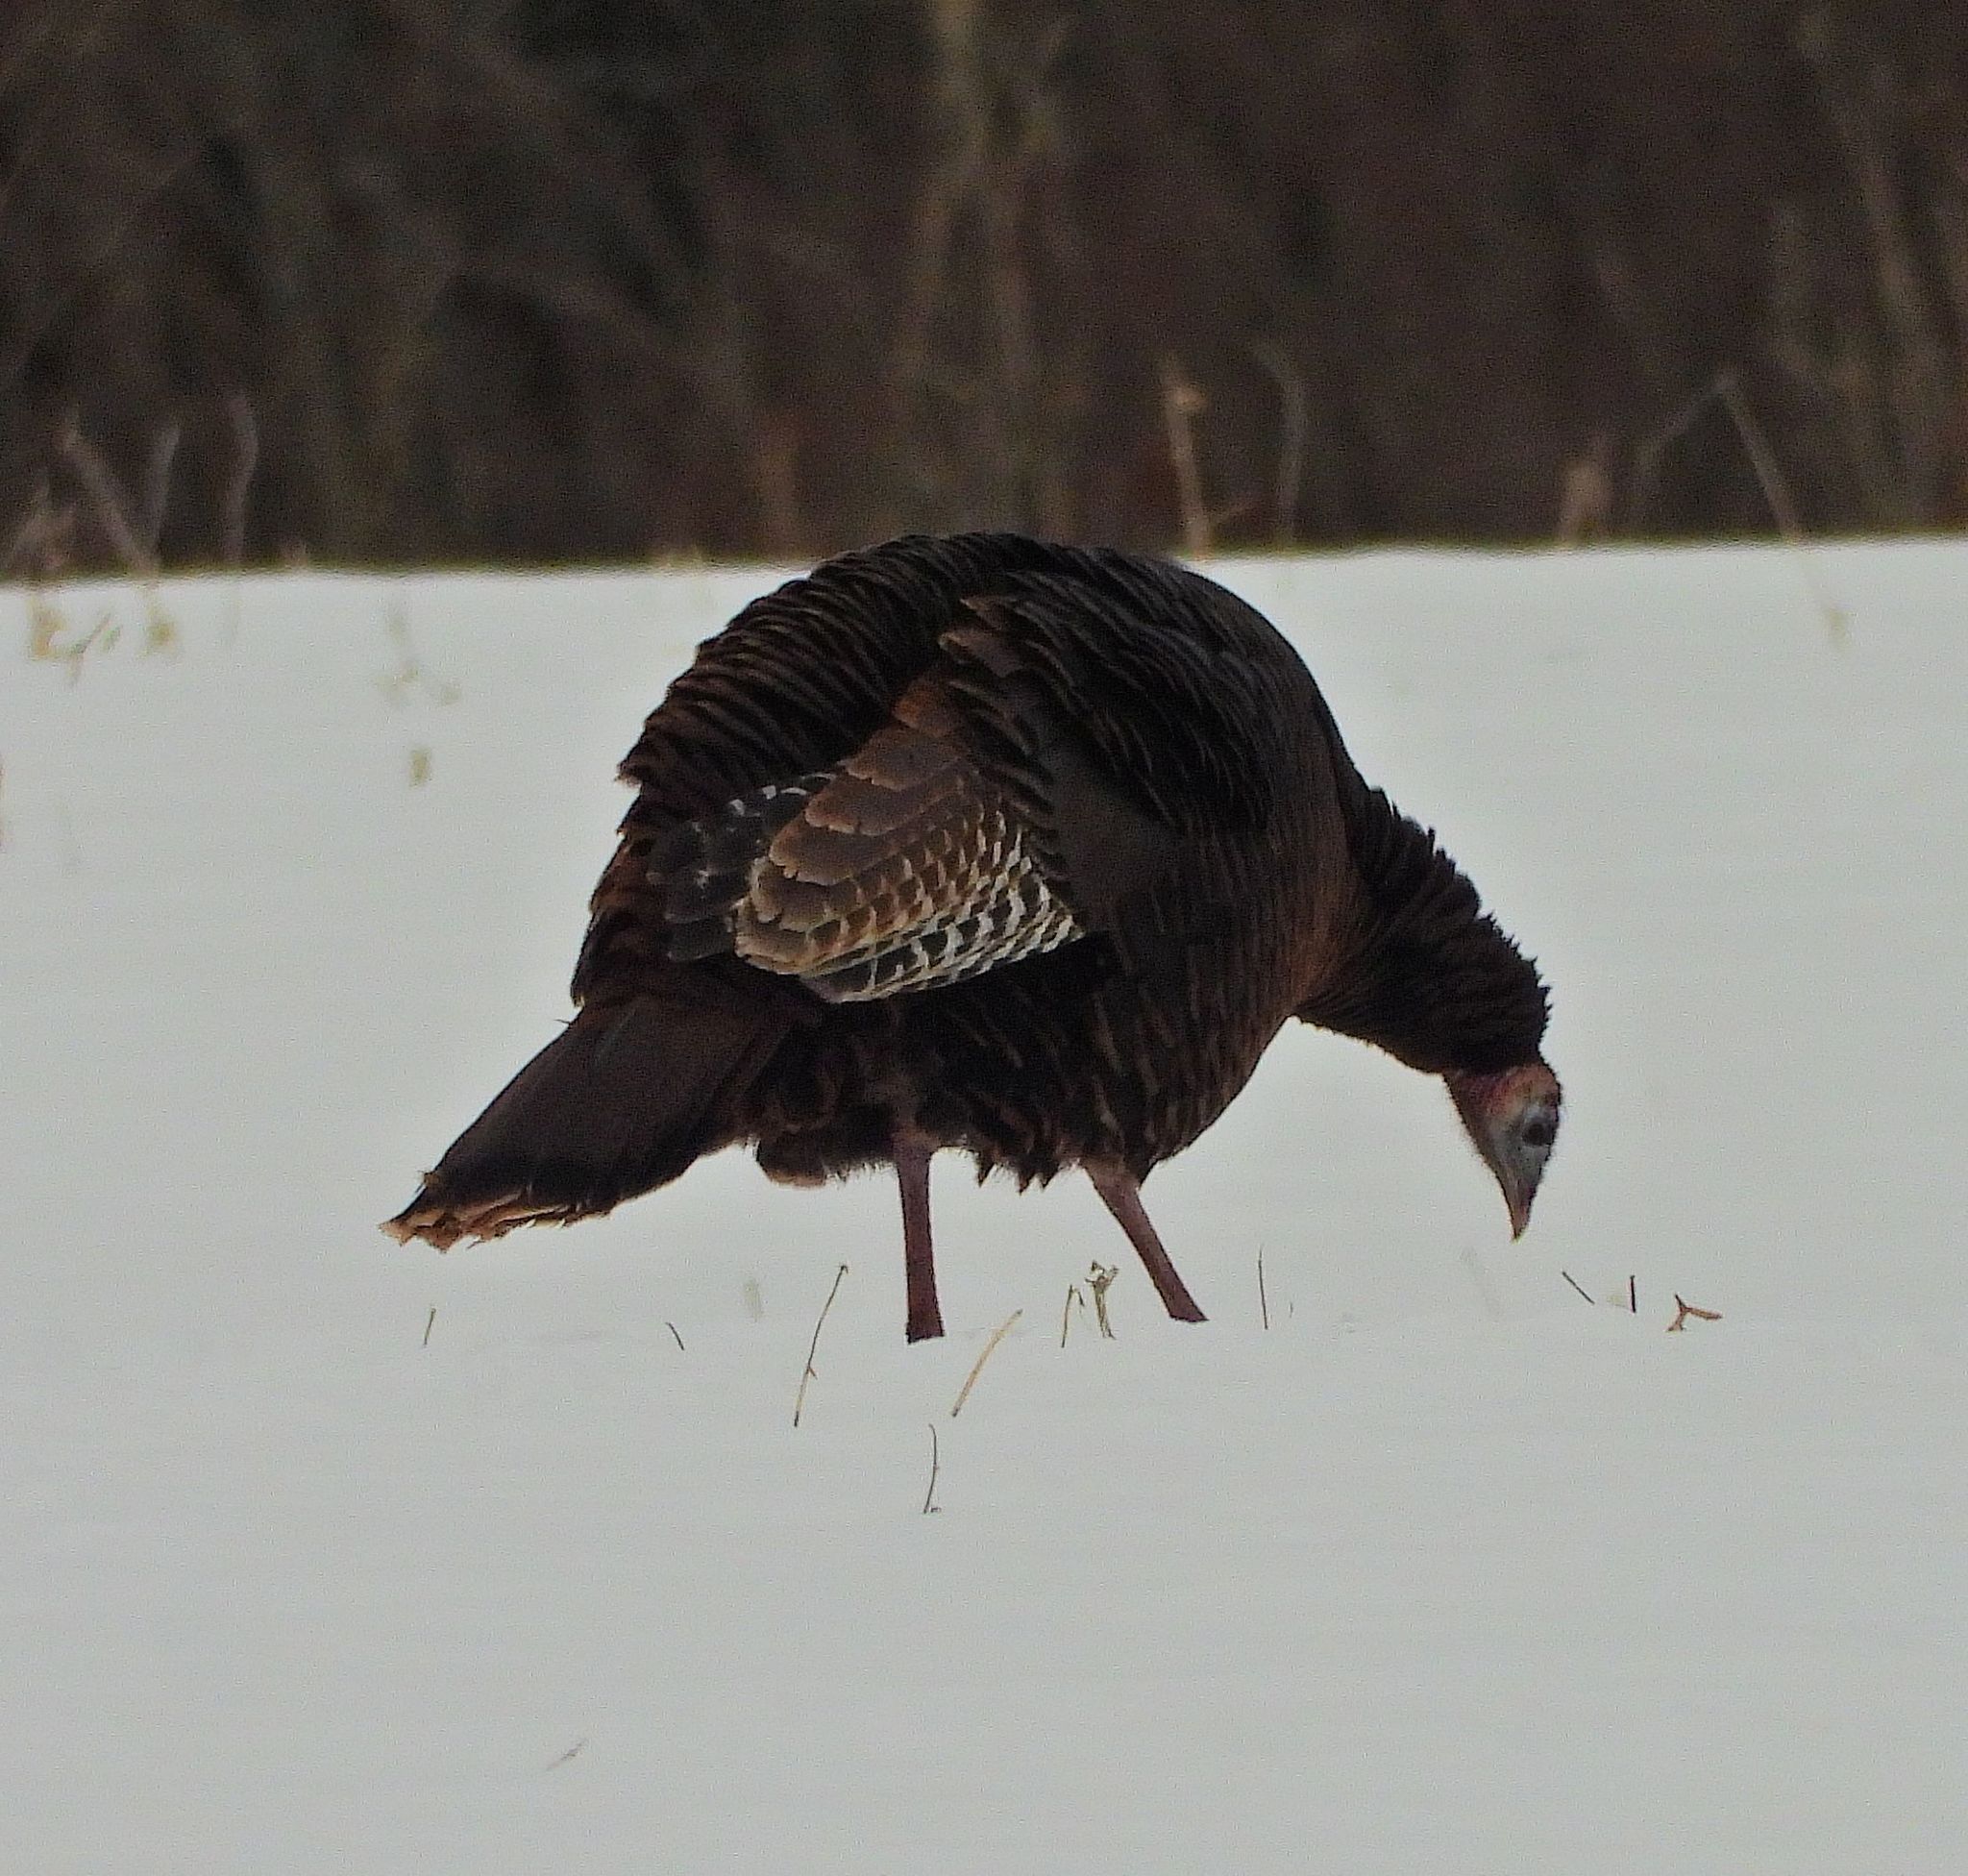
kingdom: Animalia
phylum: Chordata
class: Aves
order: Galliformes
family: Phasianidae
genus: Meleagris
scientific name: Meleagris gallopavo
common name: Wild turkey
